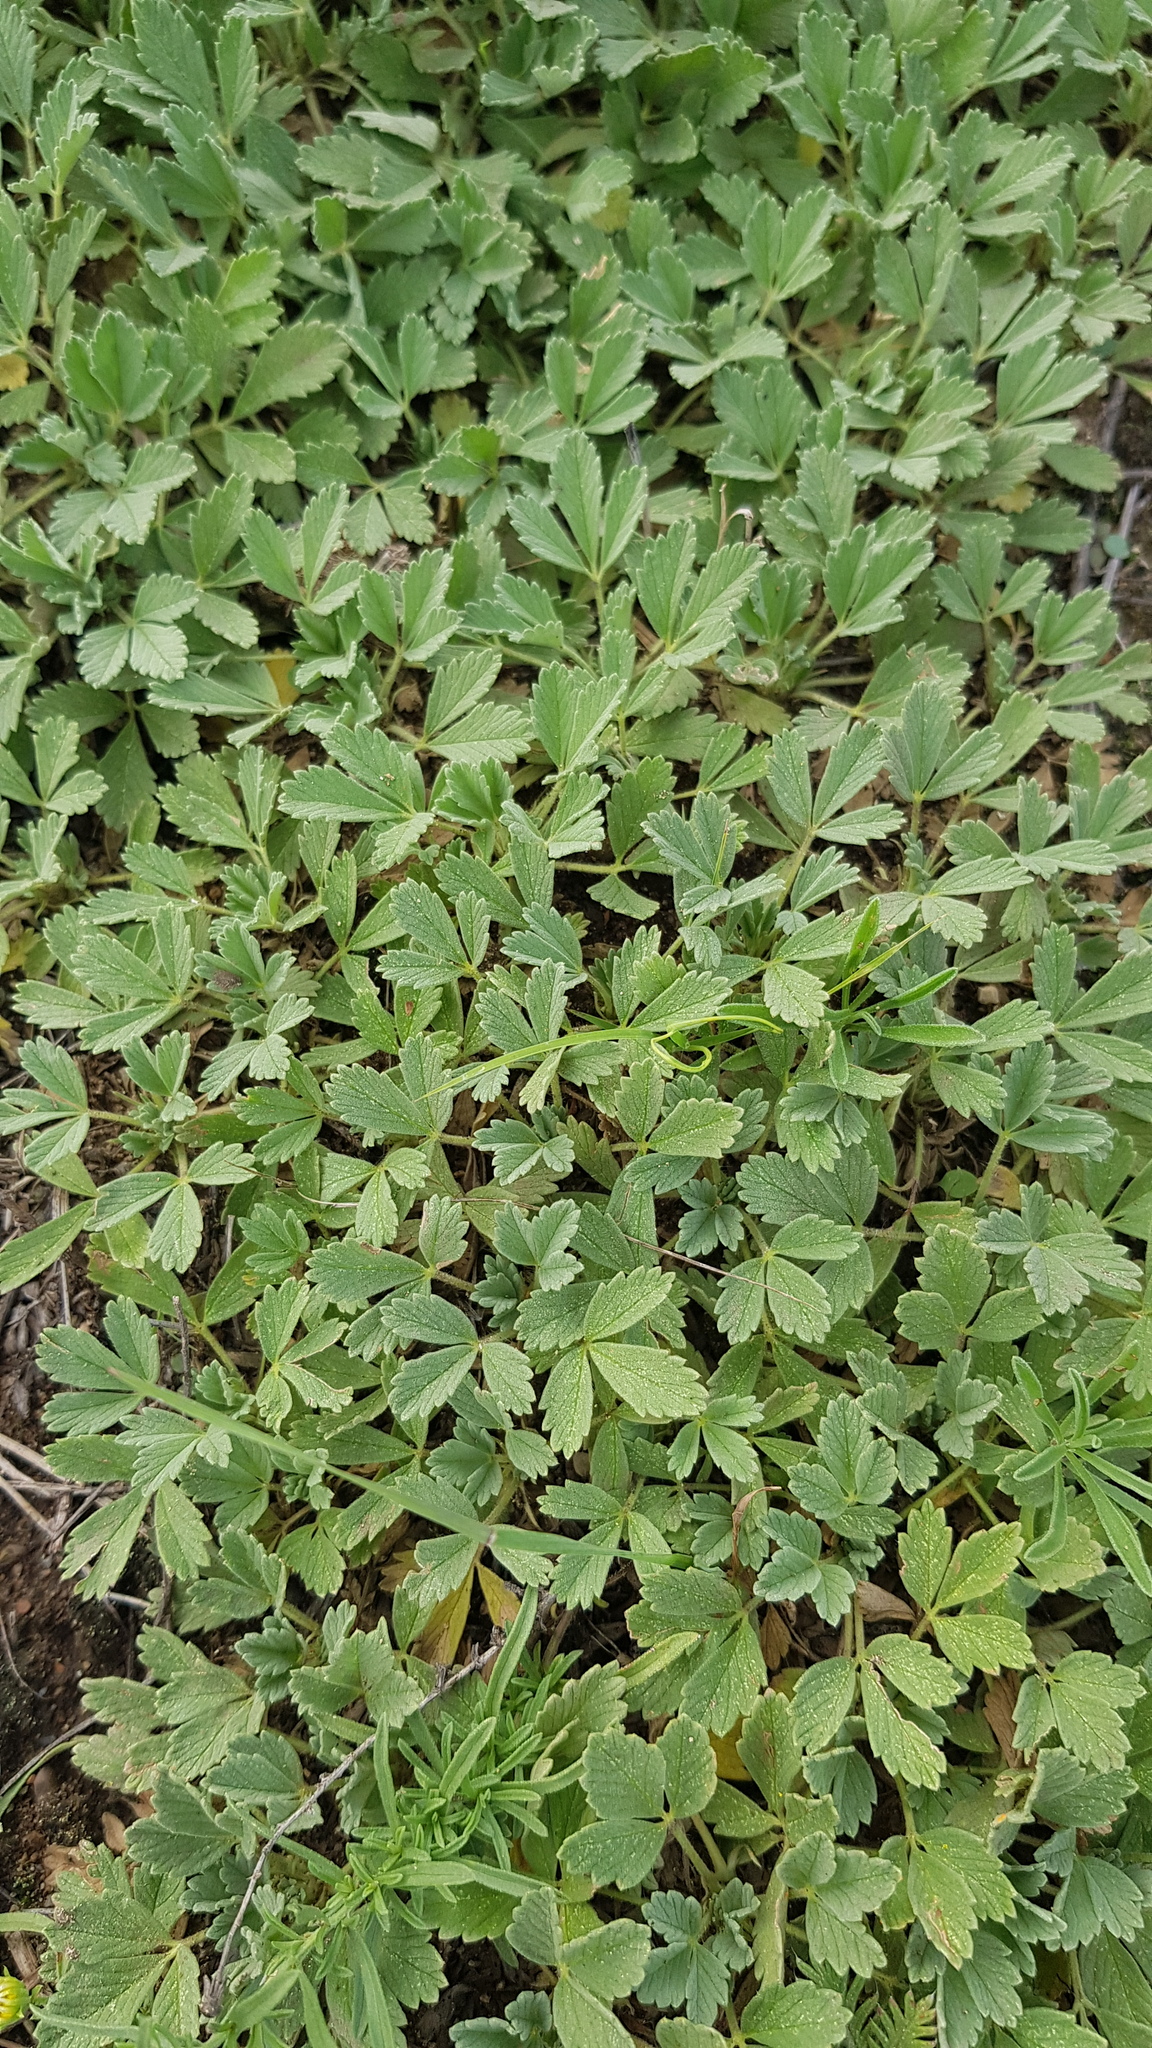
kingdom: Plantae
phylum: Tracheophyta
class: Magnoliopsida
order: Rosales
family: Rosaceae
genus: Potentilla
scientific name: Potentilla acaulis
